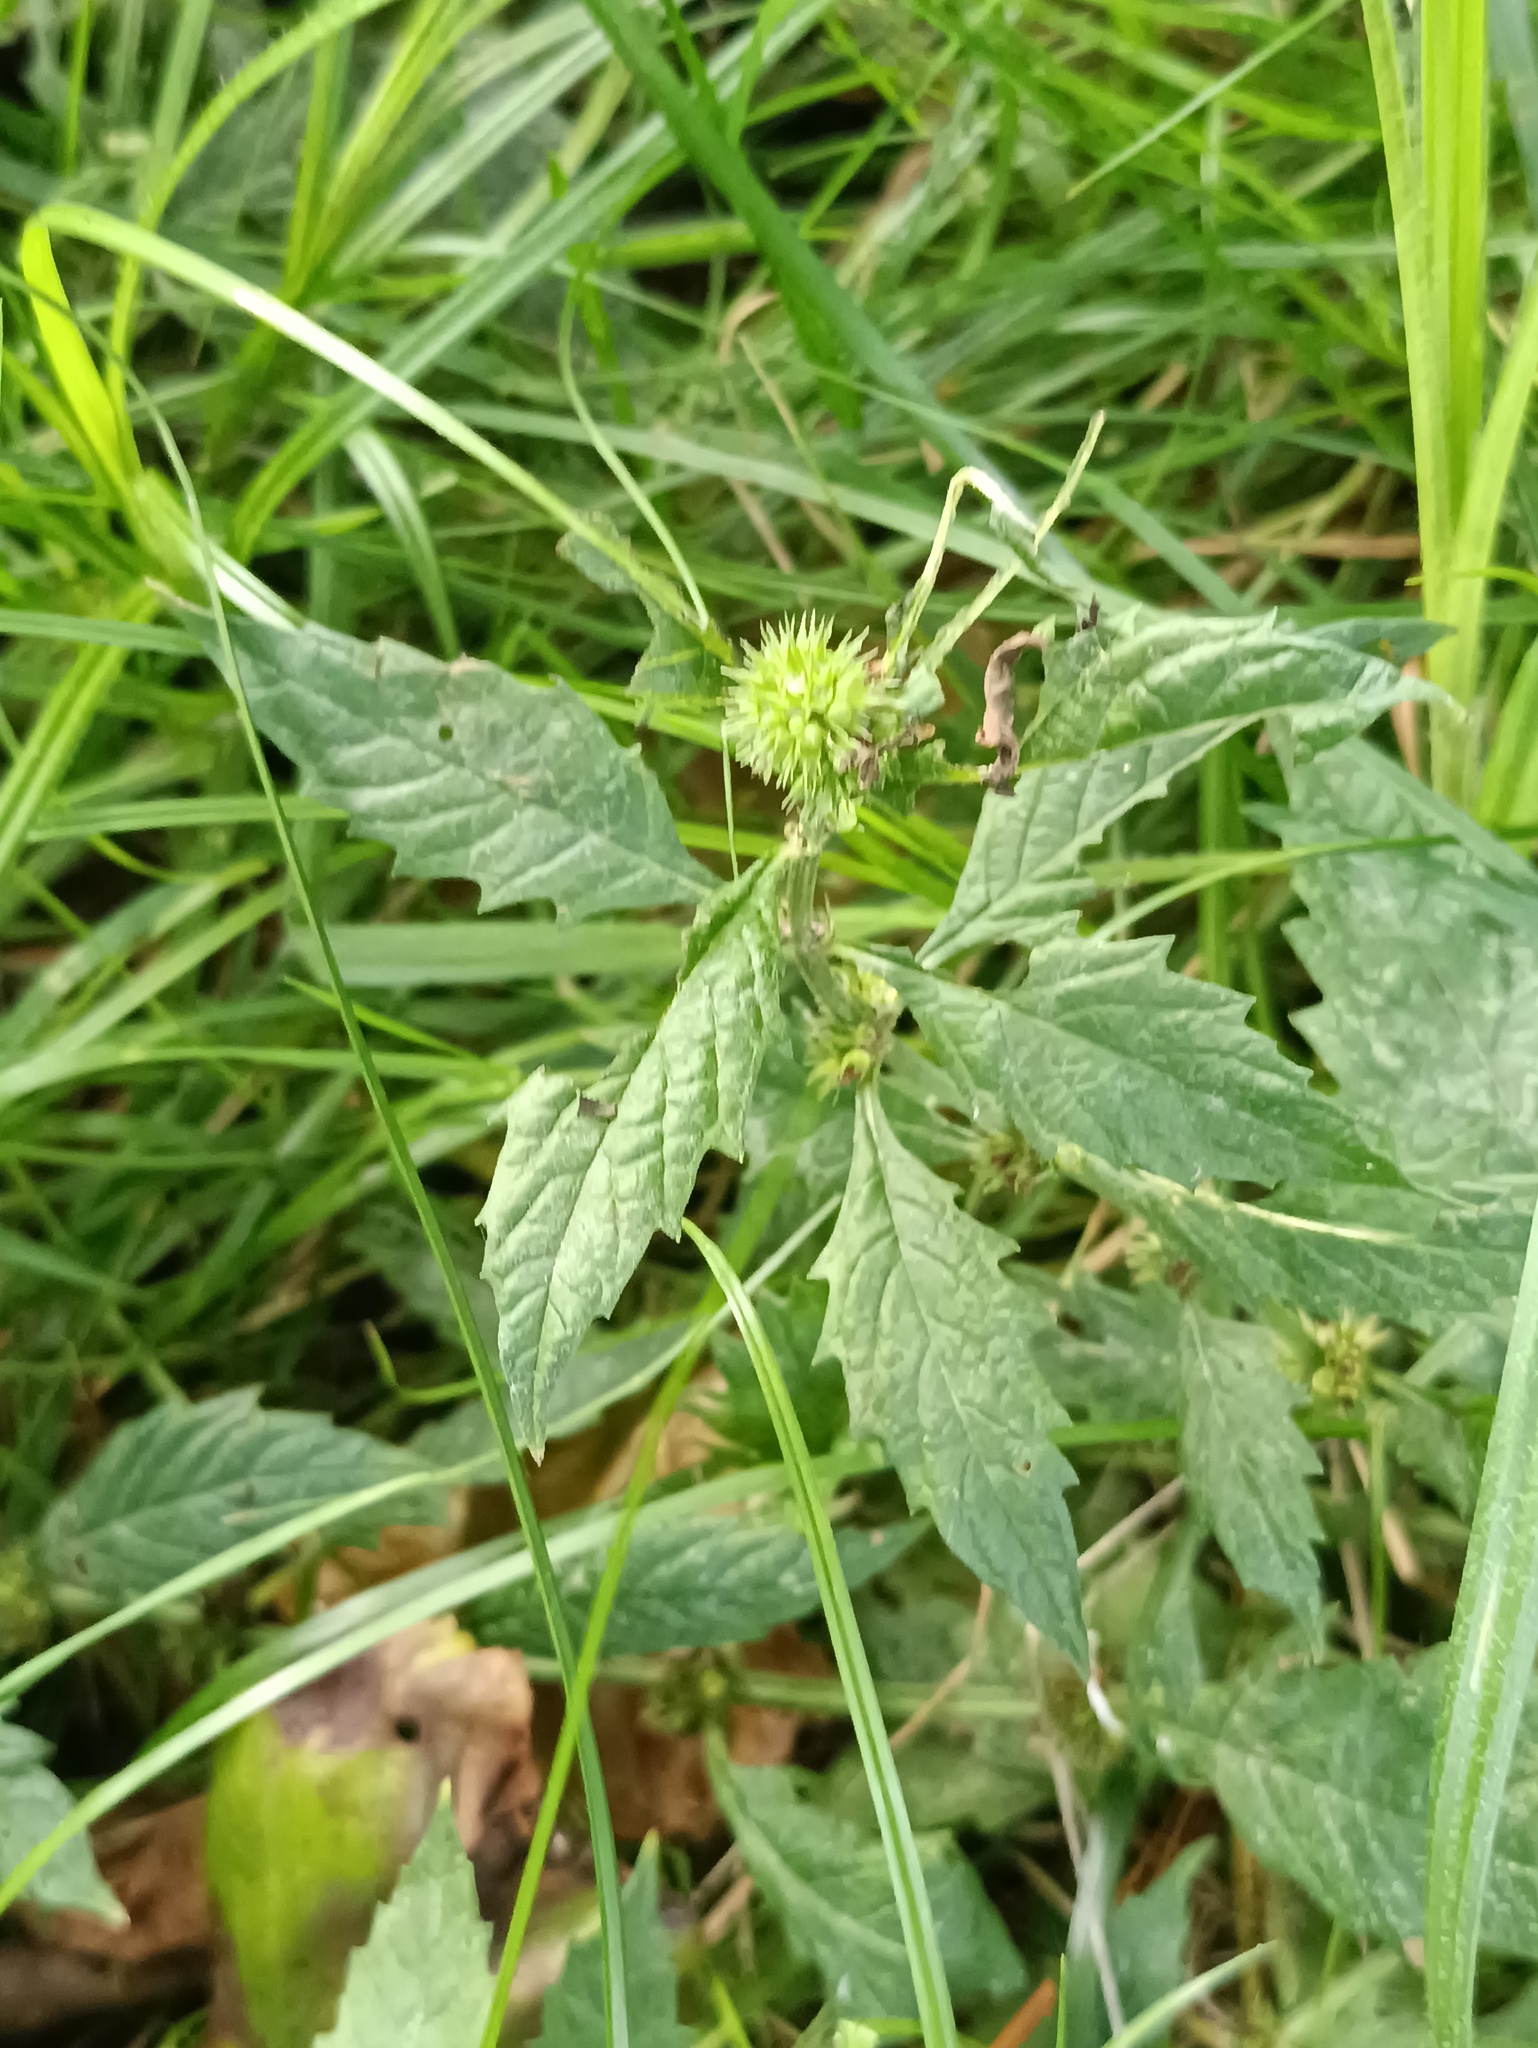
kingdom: Plantae
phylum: Tracheophyta
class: Magnoliopsida
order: Lamiales
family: Lamiaceae
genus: Lycopus
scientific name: Lycopus europaeus
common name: European bugleweed
